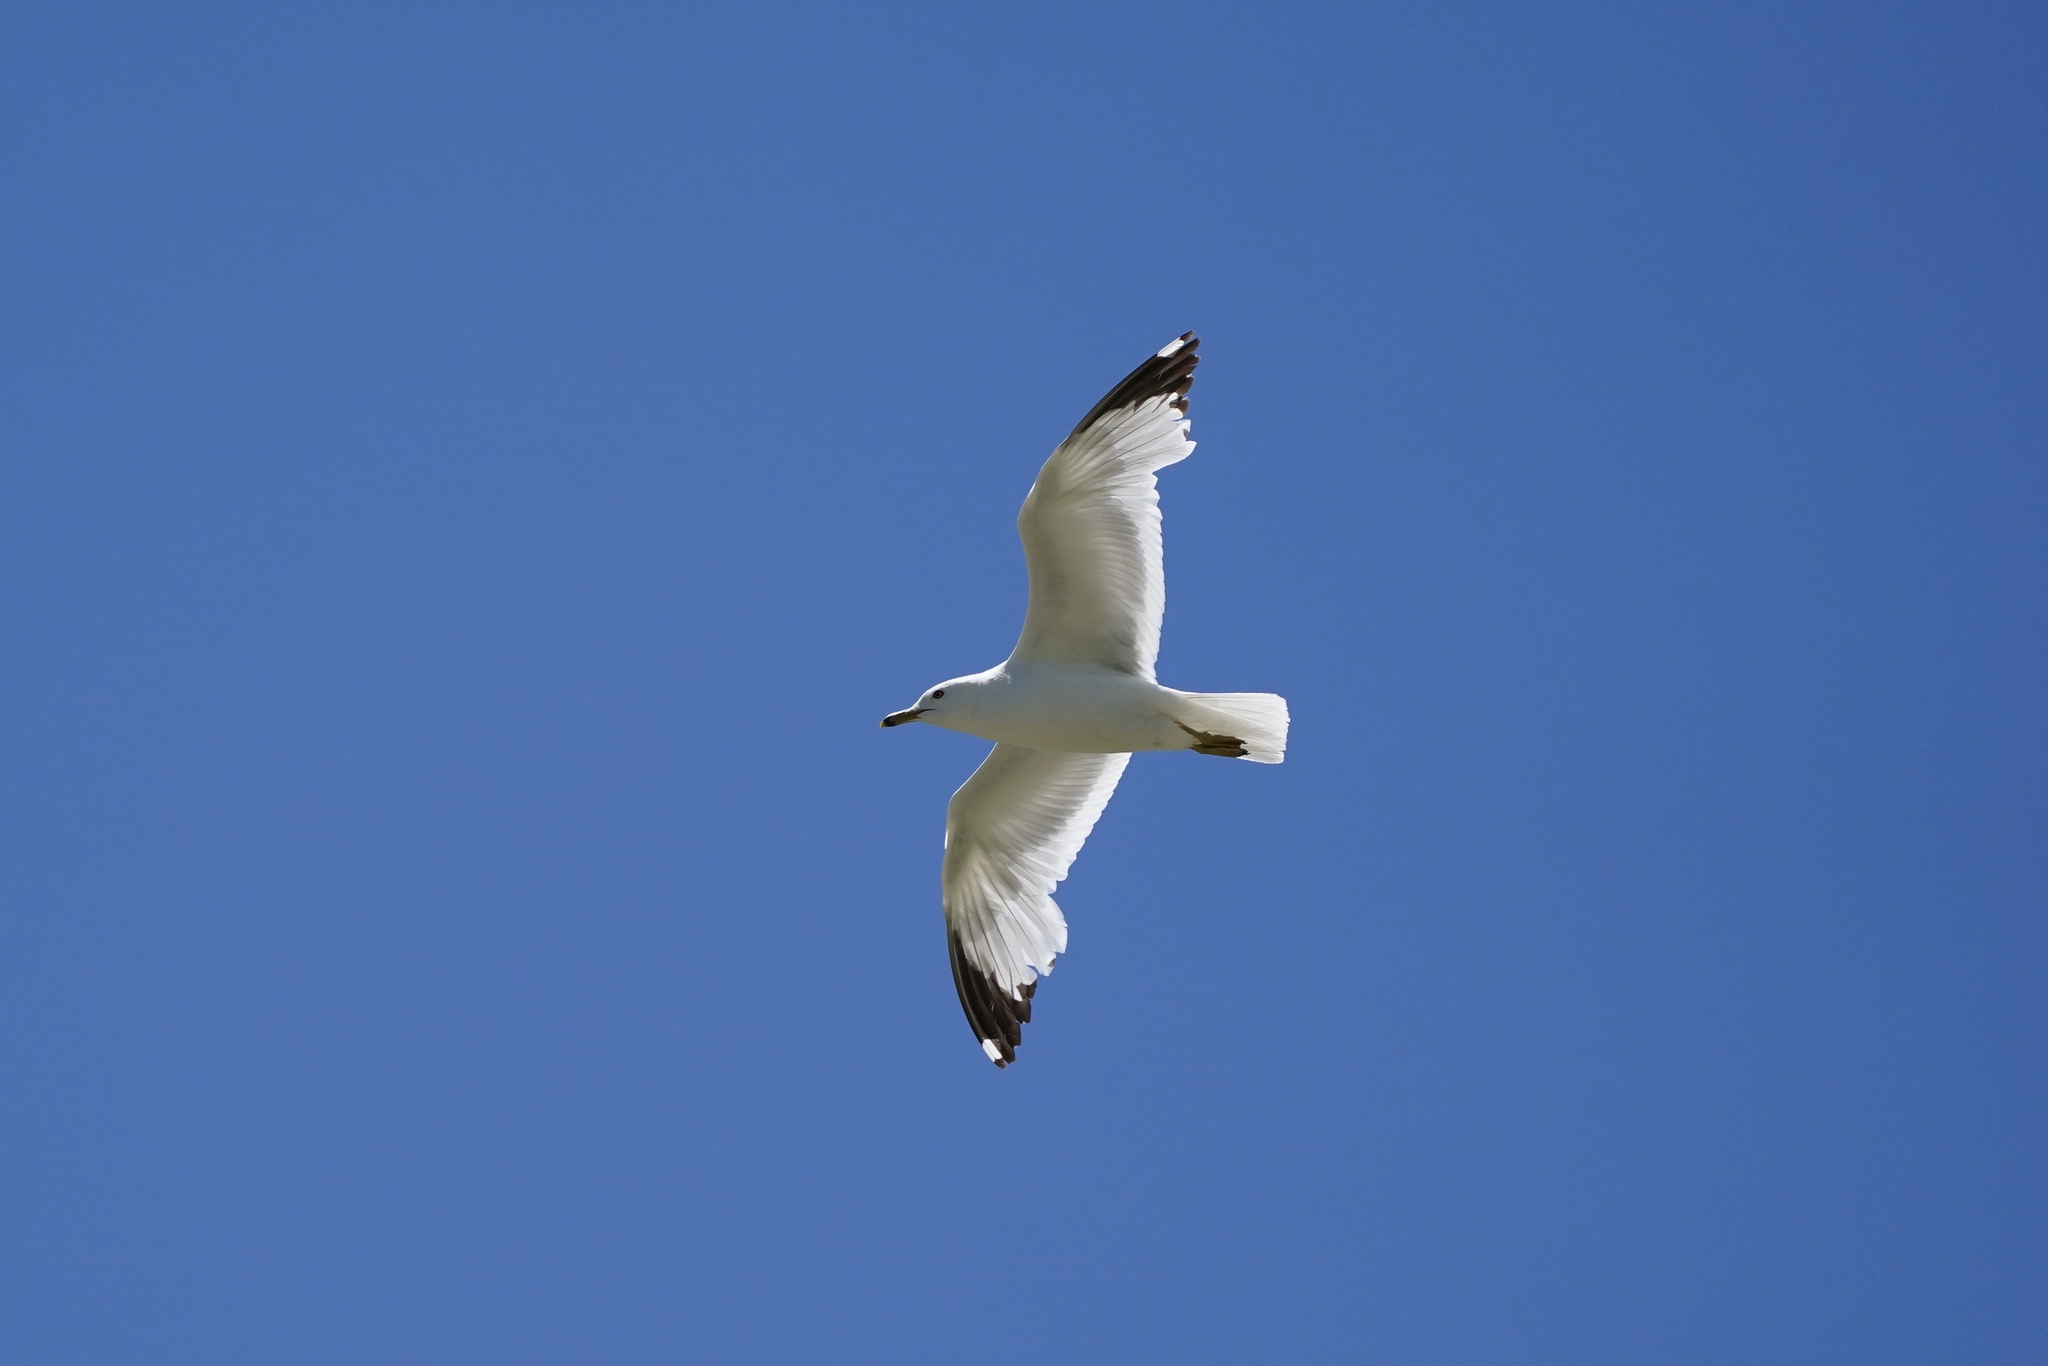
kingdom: Animalia
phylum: Chordata
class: Aves
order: Charadriiformes
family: Laridae
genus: Larus
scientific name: Larus delawarensis
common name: Ring-billed gull
